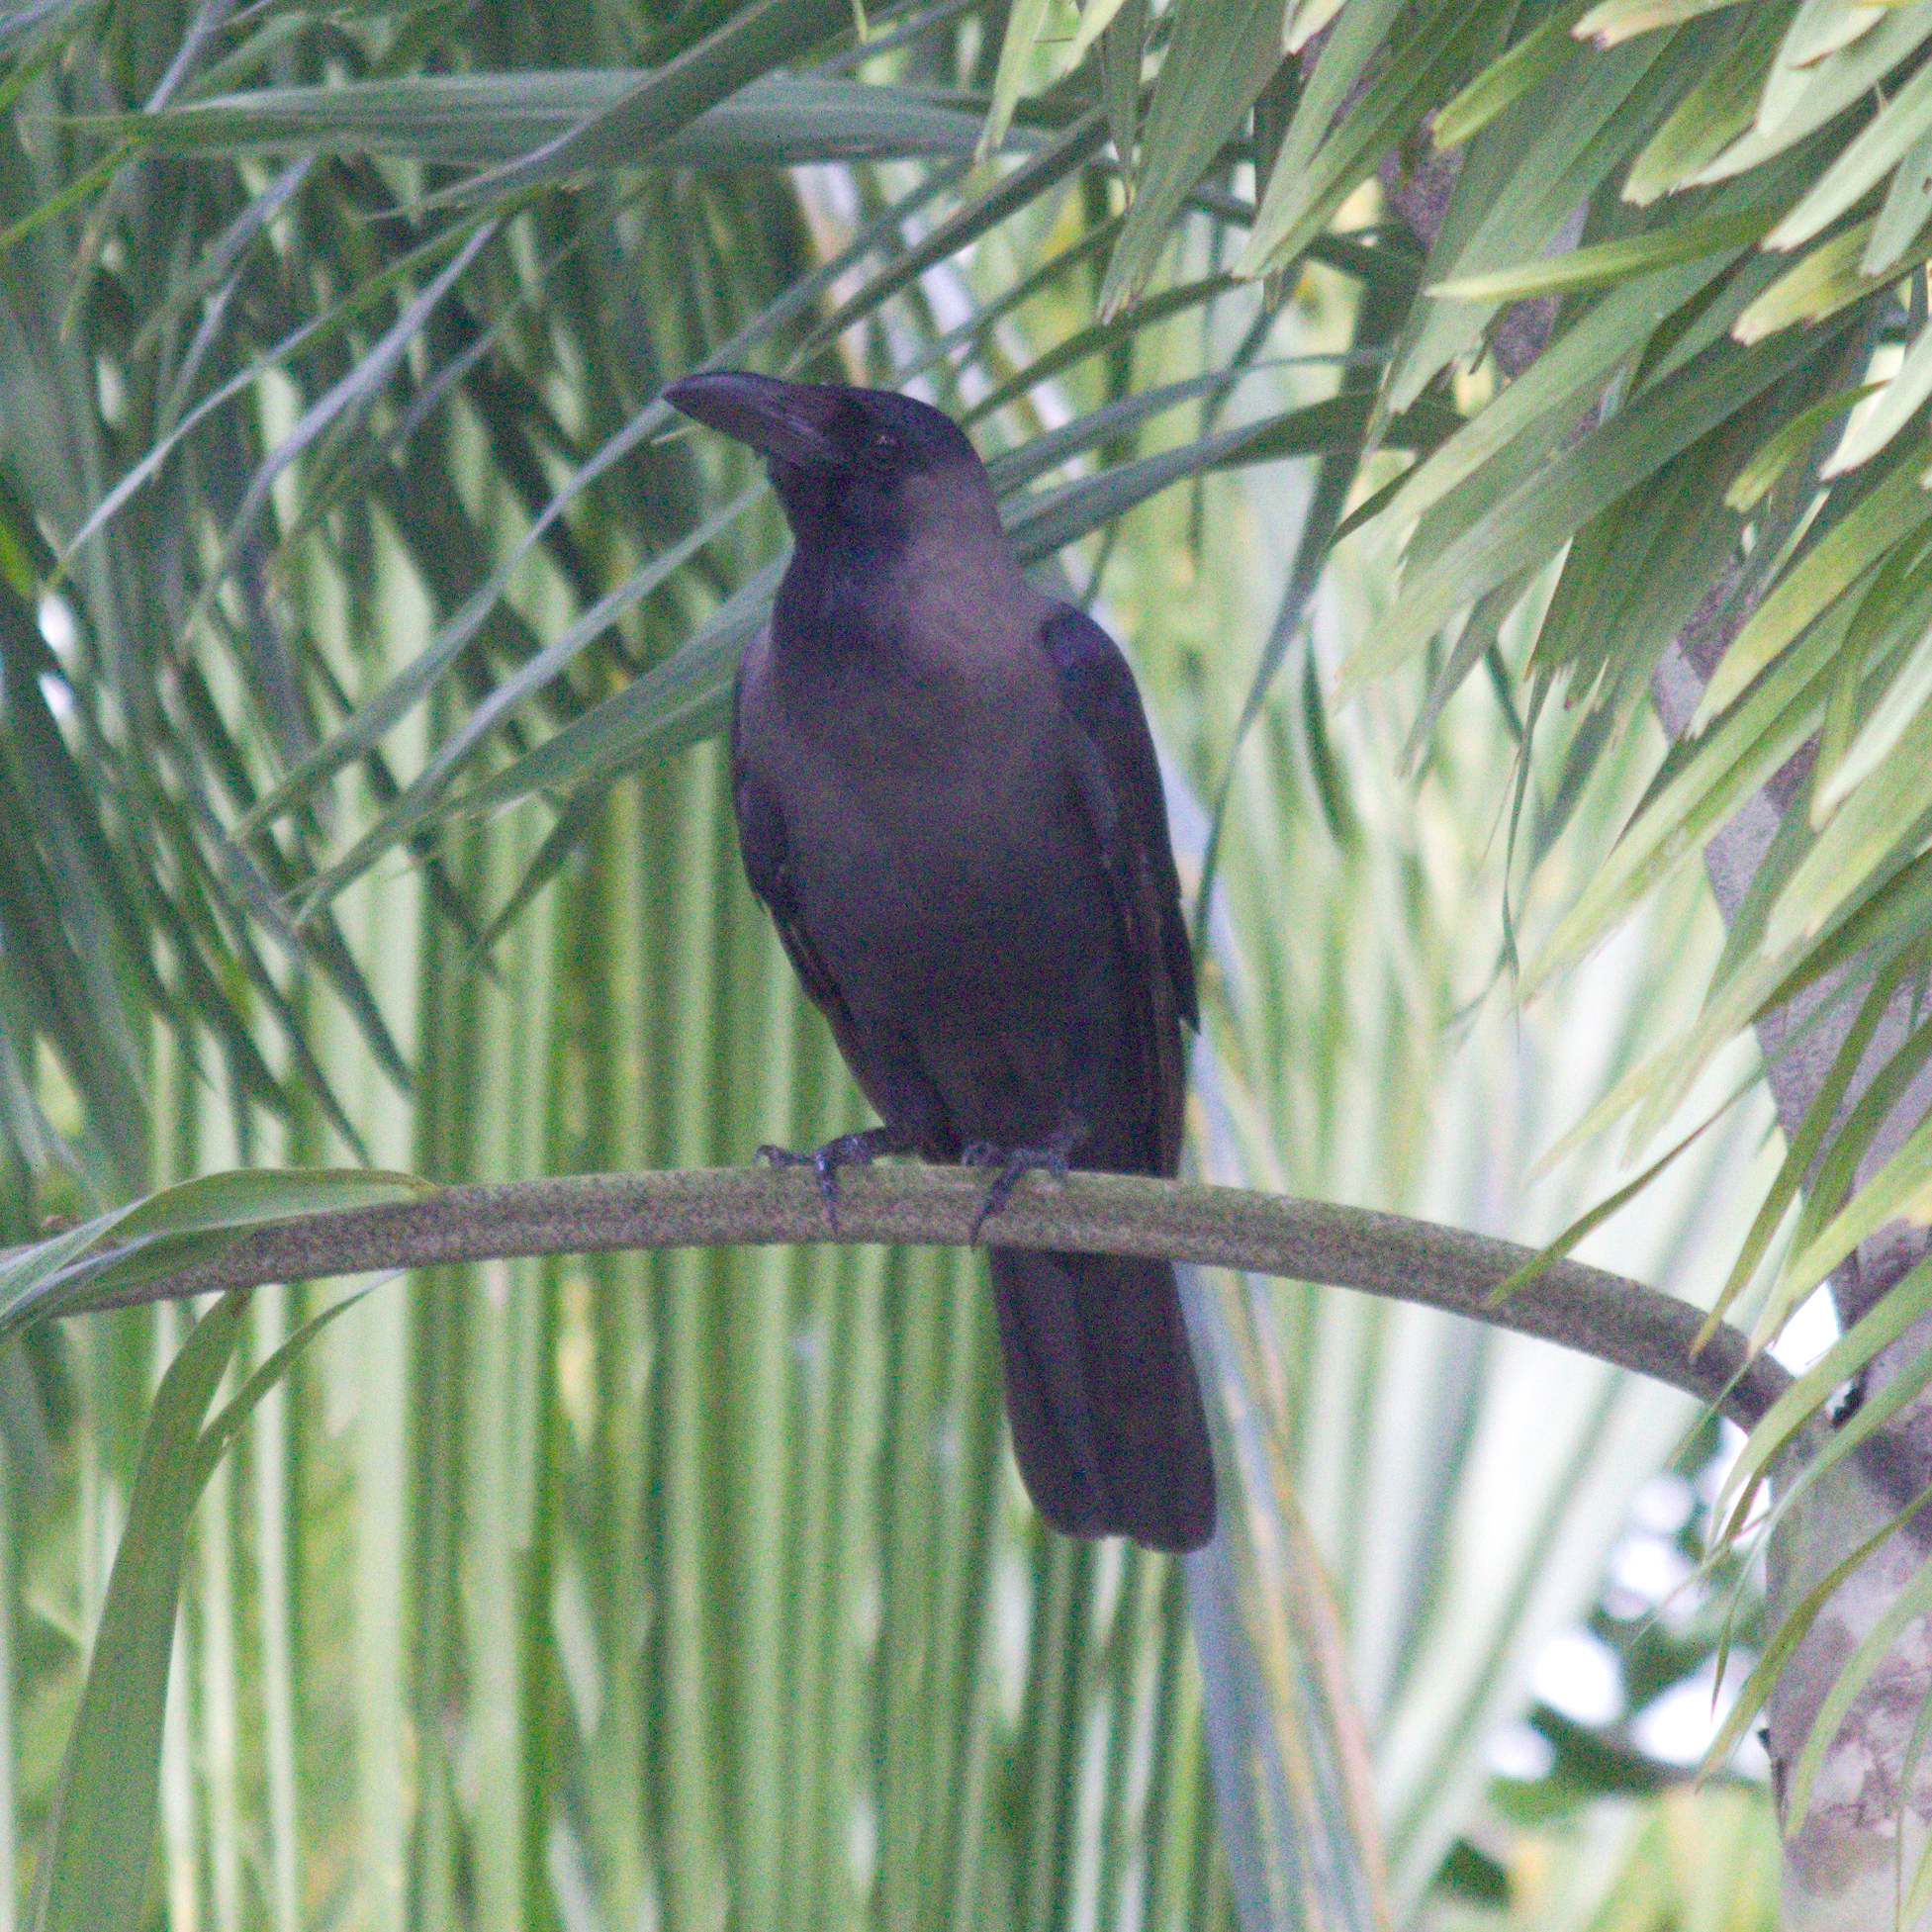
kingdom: Animalia
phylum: Chordata
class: Aves
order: Passeriformes
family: Corvidae
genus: Corvus
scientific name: Corvus splendens
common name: House crow
